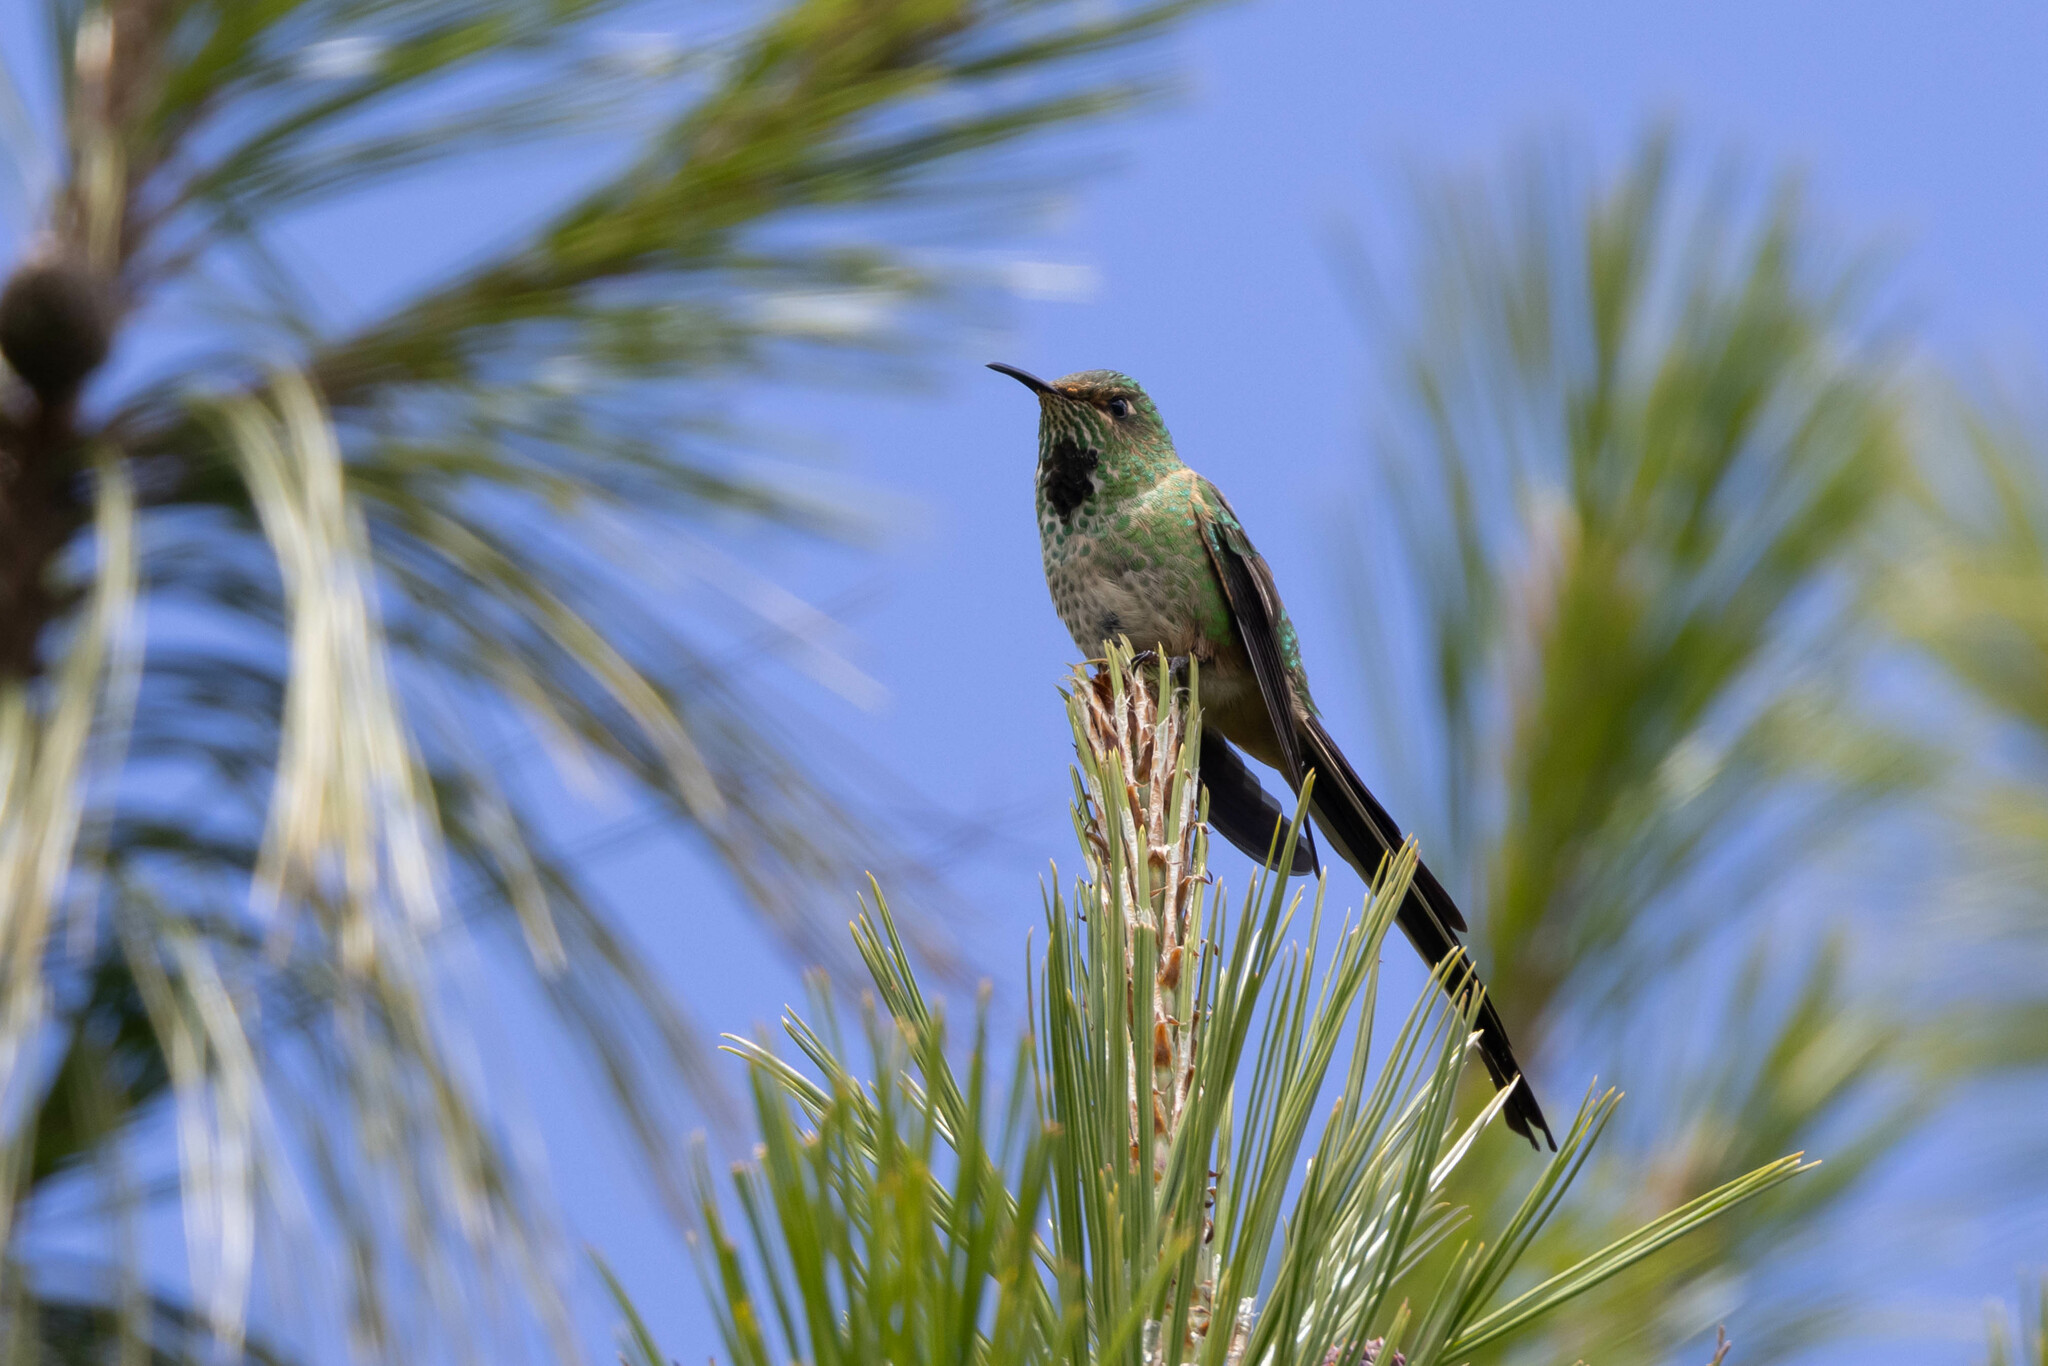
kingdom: Animalia
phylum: Chordata
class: Aves
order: Apodiformes
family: Trochilidae
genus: Lesbia
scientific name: Lesbia victoriae
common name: Black-tailed trainbearer
